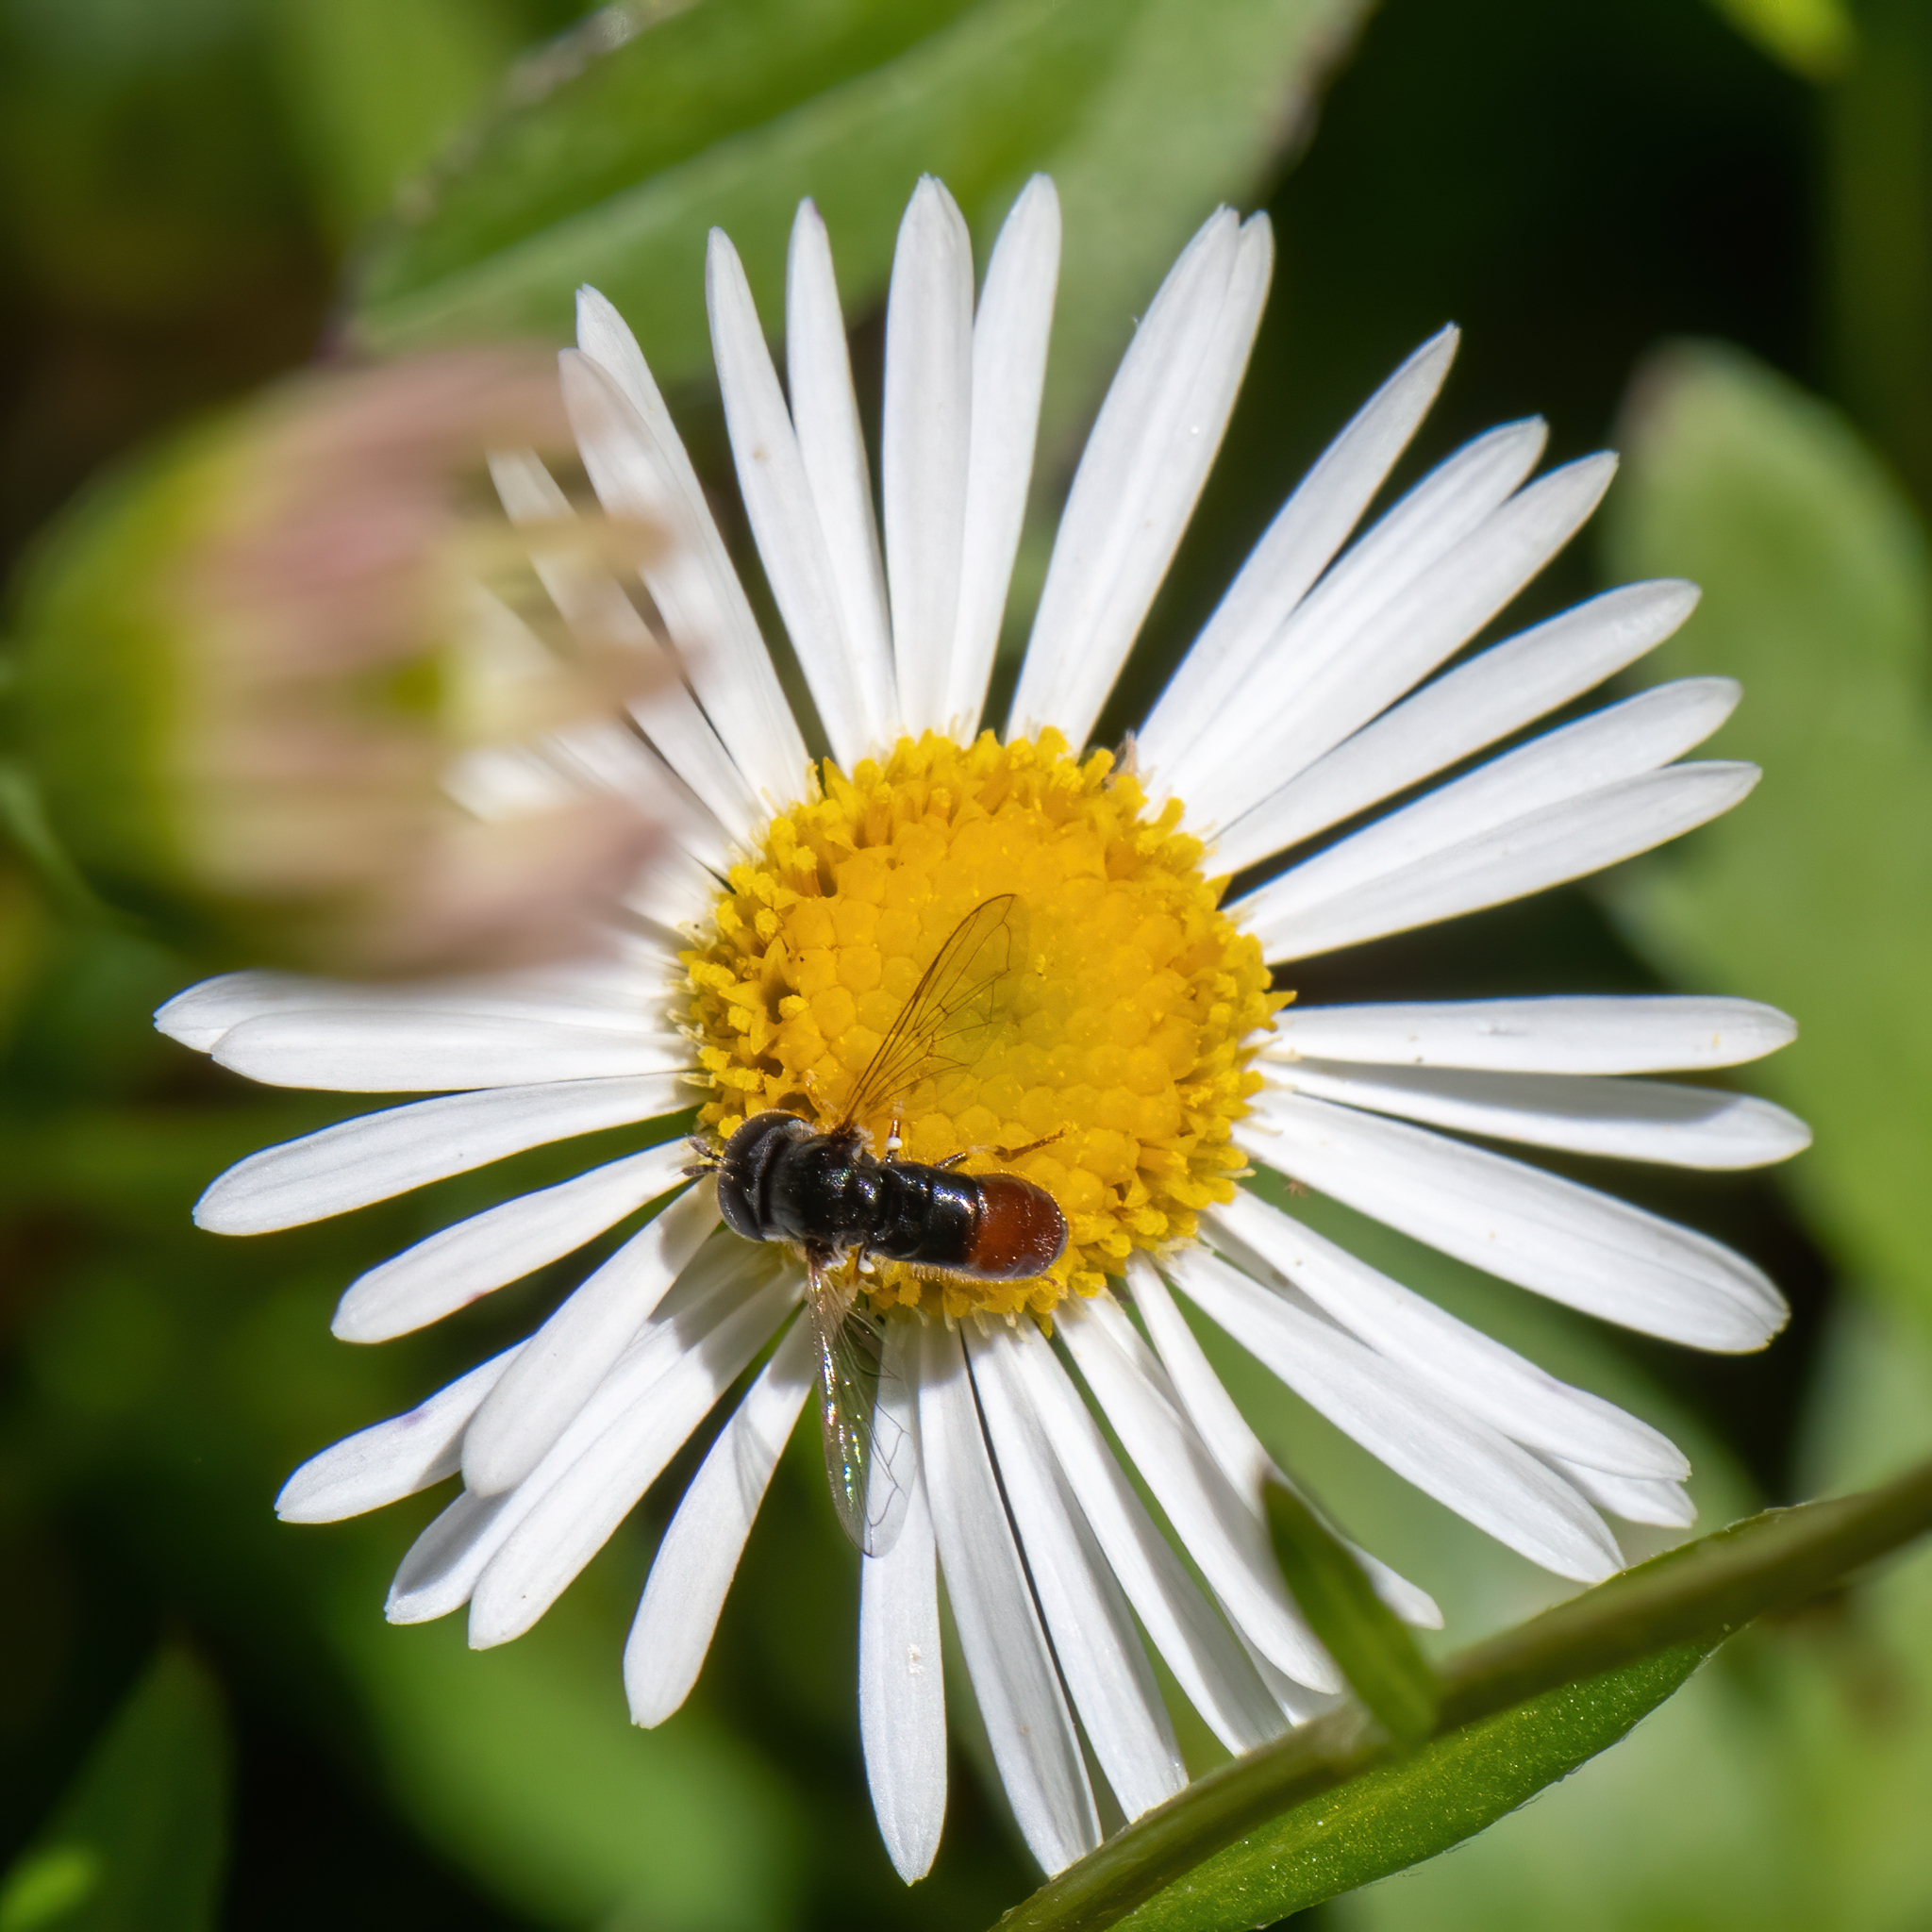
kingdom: Animalia
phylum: Arthropoda
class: Insecta
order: Diptera
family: Syrphidae
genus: Paragus
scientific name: Paragus haemorrhous
